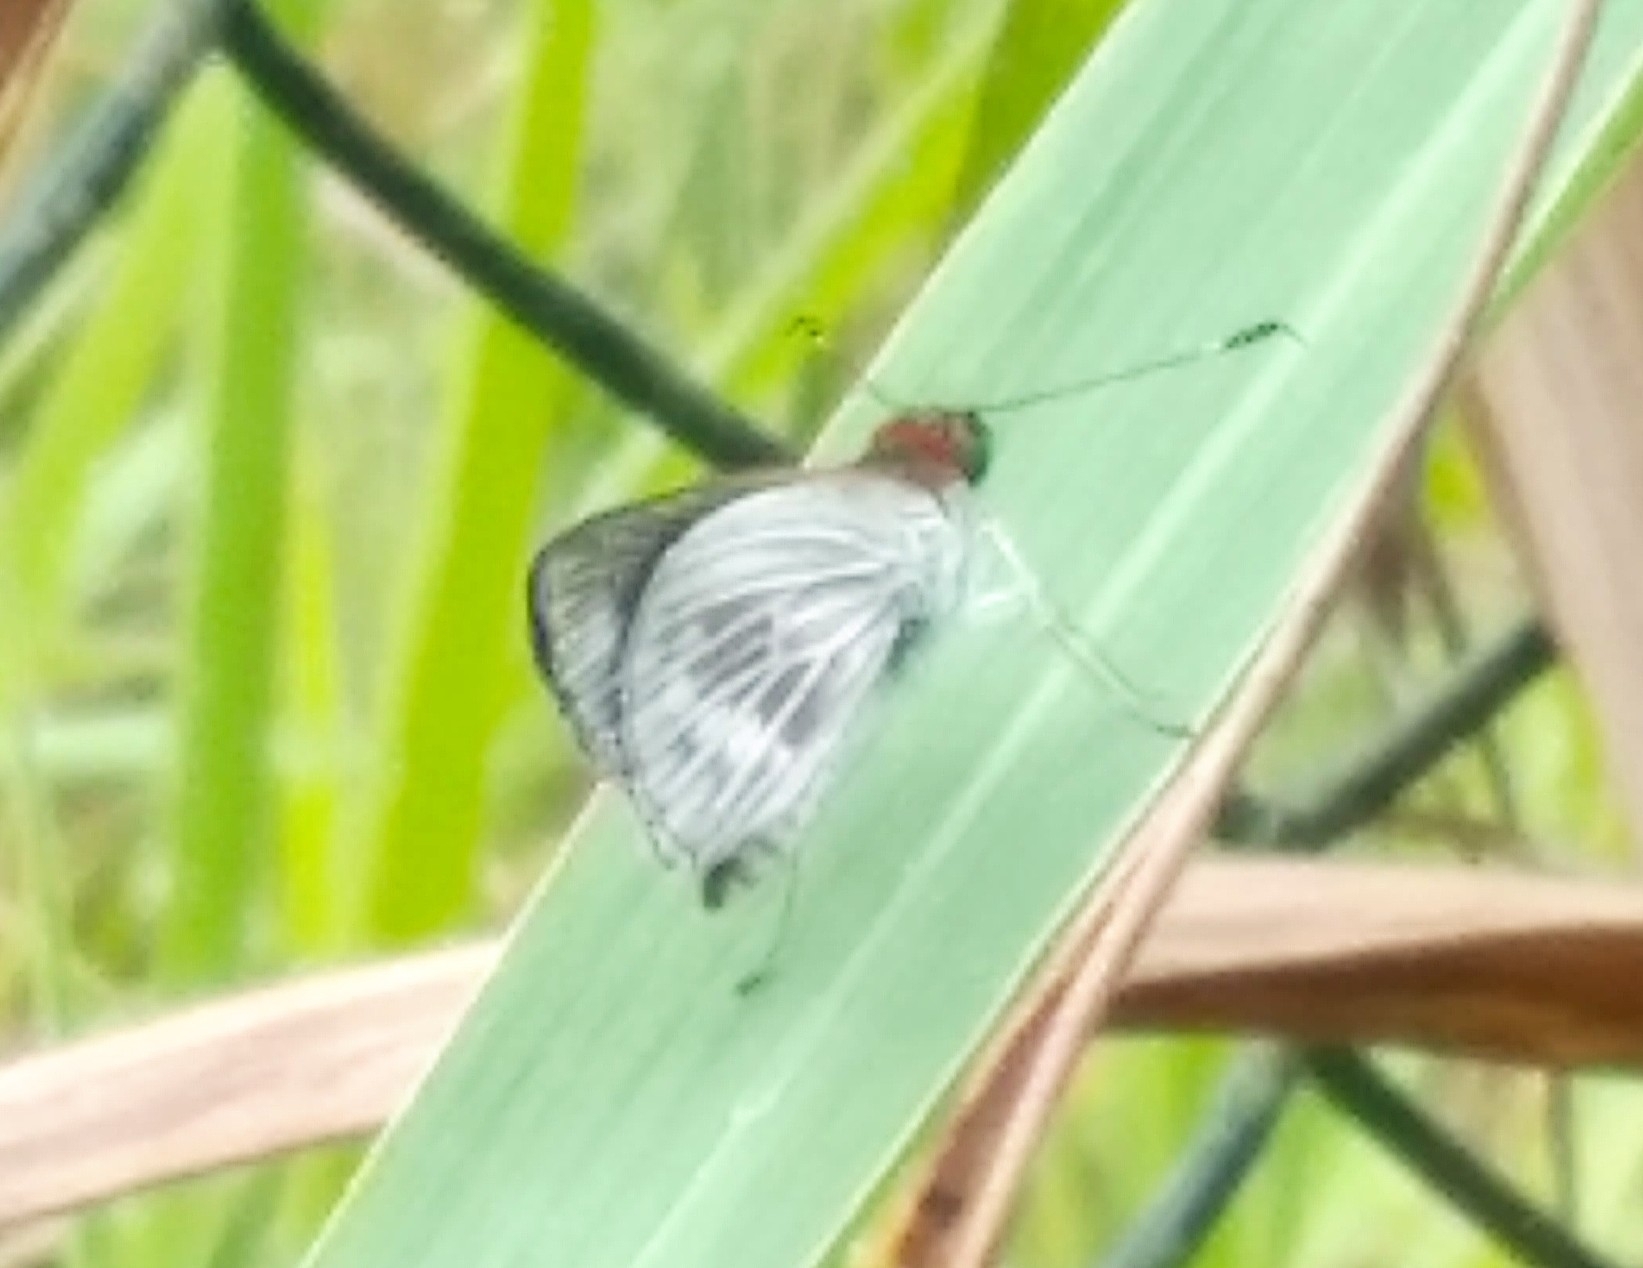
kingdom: Animalia
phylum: Arthropoda
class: Insecta
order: Lepidoptera
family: Hesperiidae
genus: Vettius
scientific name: Vettius artona
